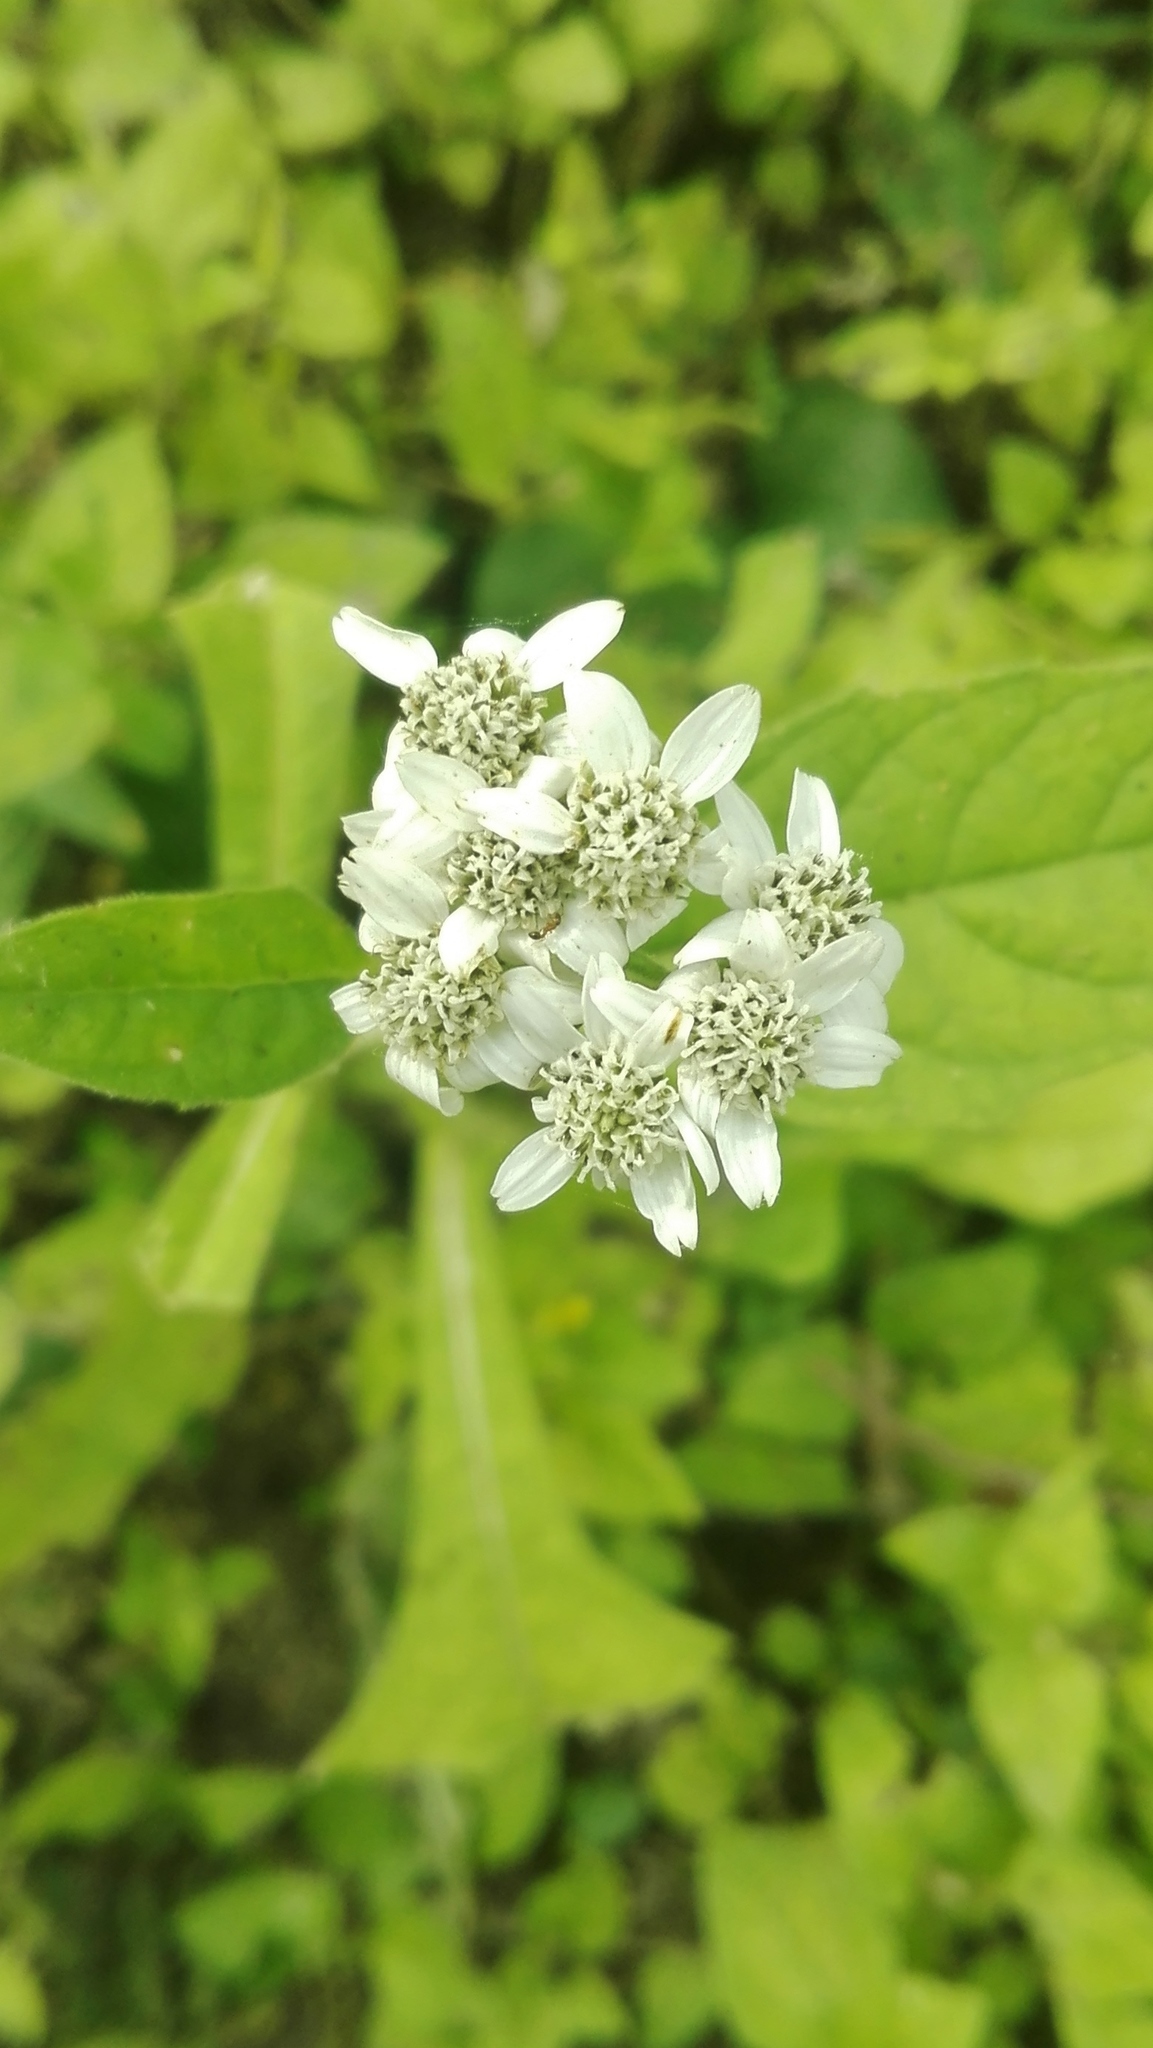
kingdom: Plantae
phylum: Tracheophyta
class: Magnoliopsida
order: Asterales
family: Asteraceae
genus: Verbesina
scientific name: Verbesina microptera
